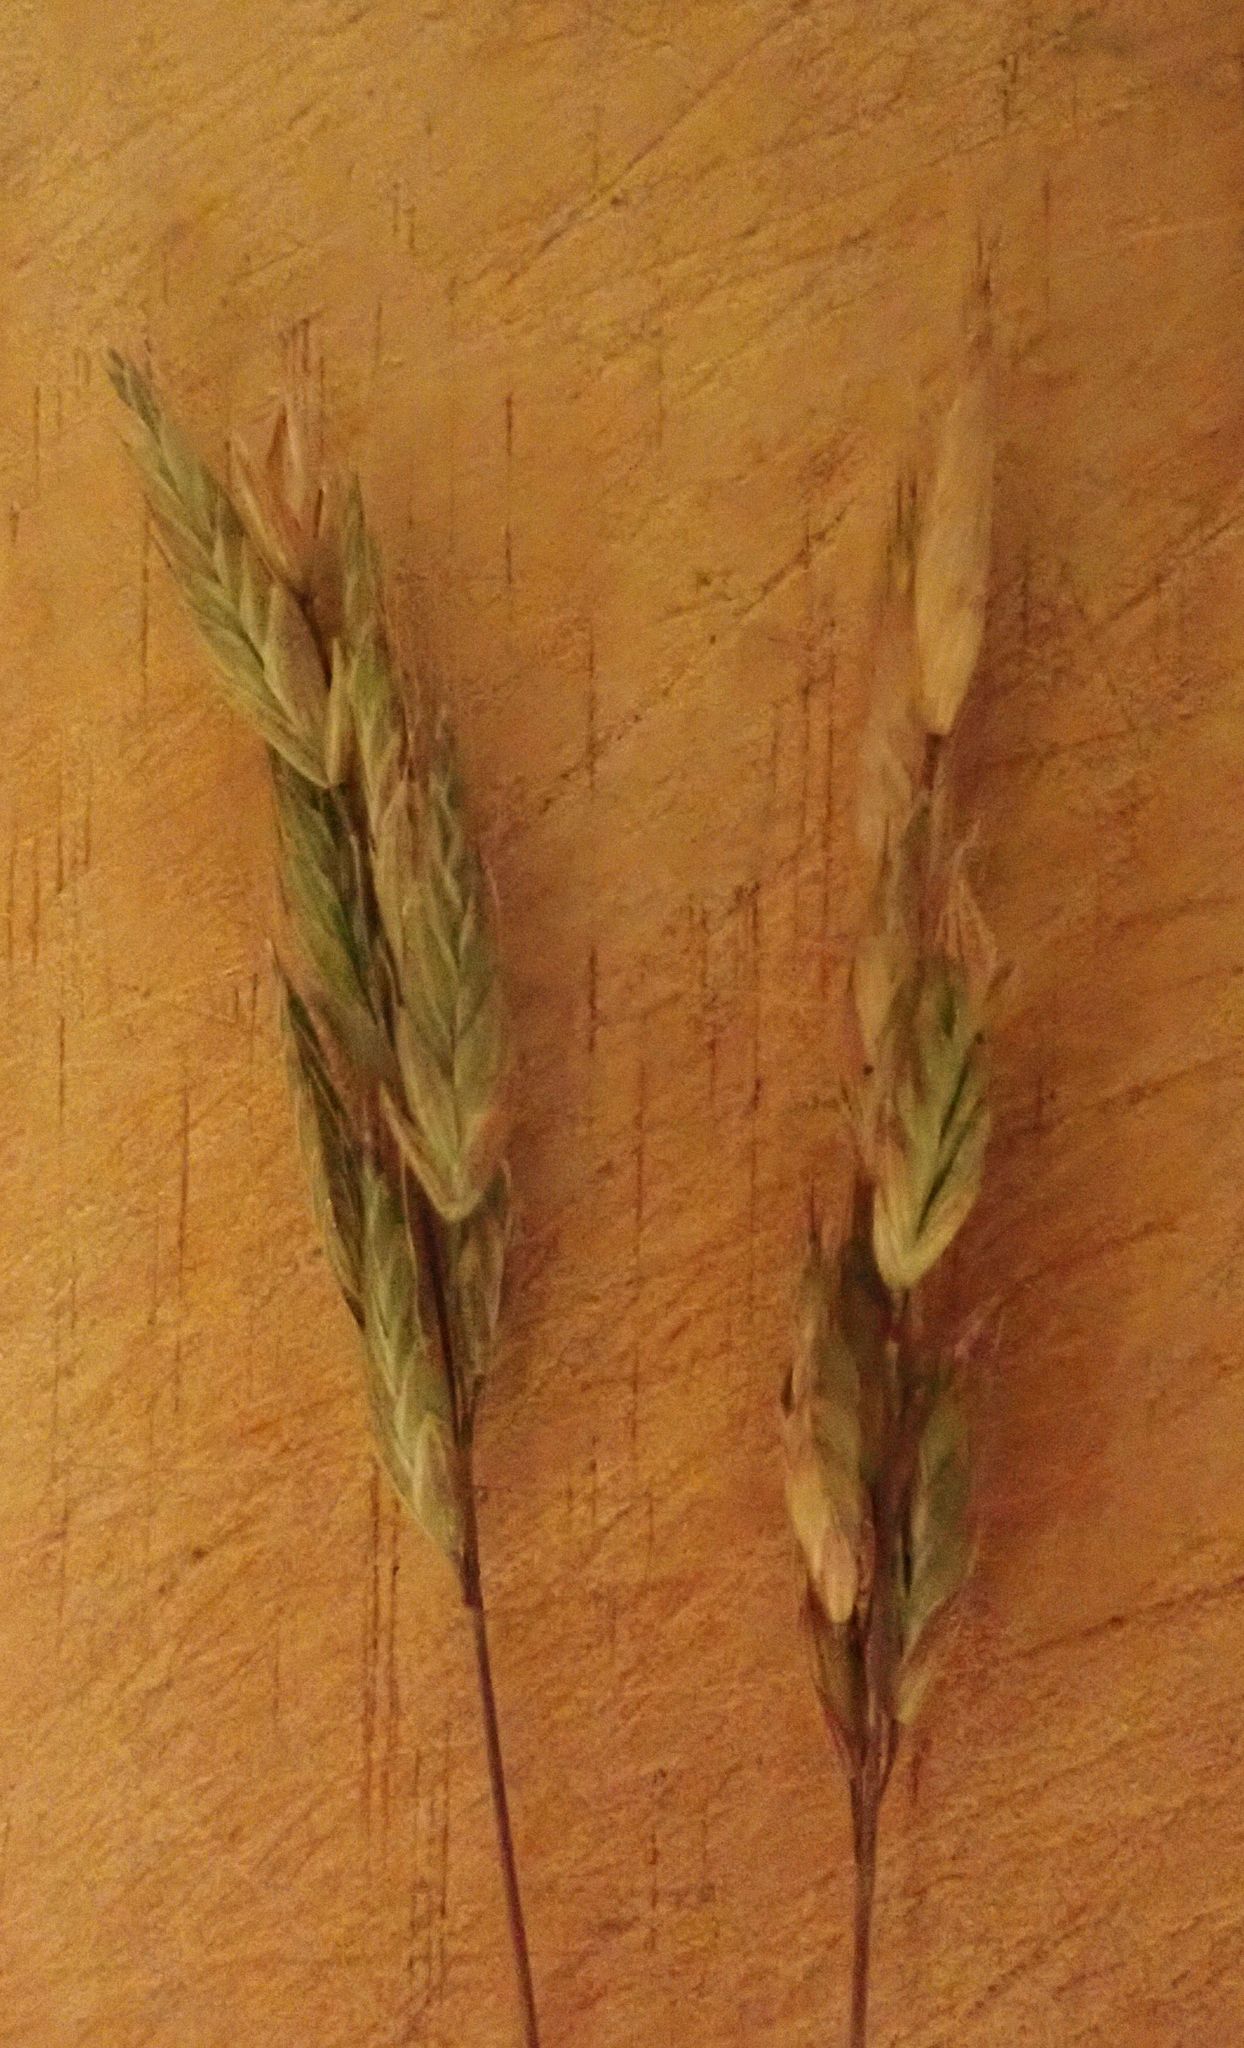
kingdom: Plantae
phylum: Tracheophyta
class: Liliopsida
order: Poales
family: Poaceae
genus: Bromus
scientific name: Bromus hordeaceus
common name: Soft brome
